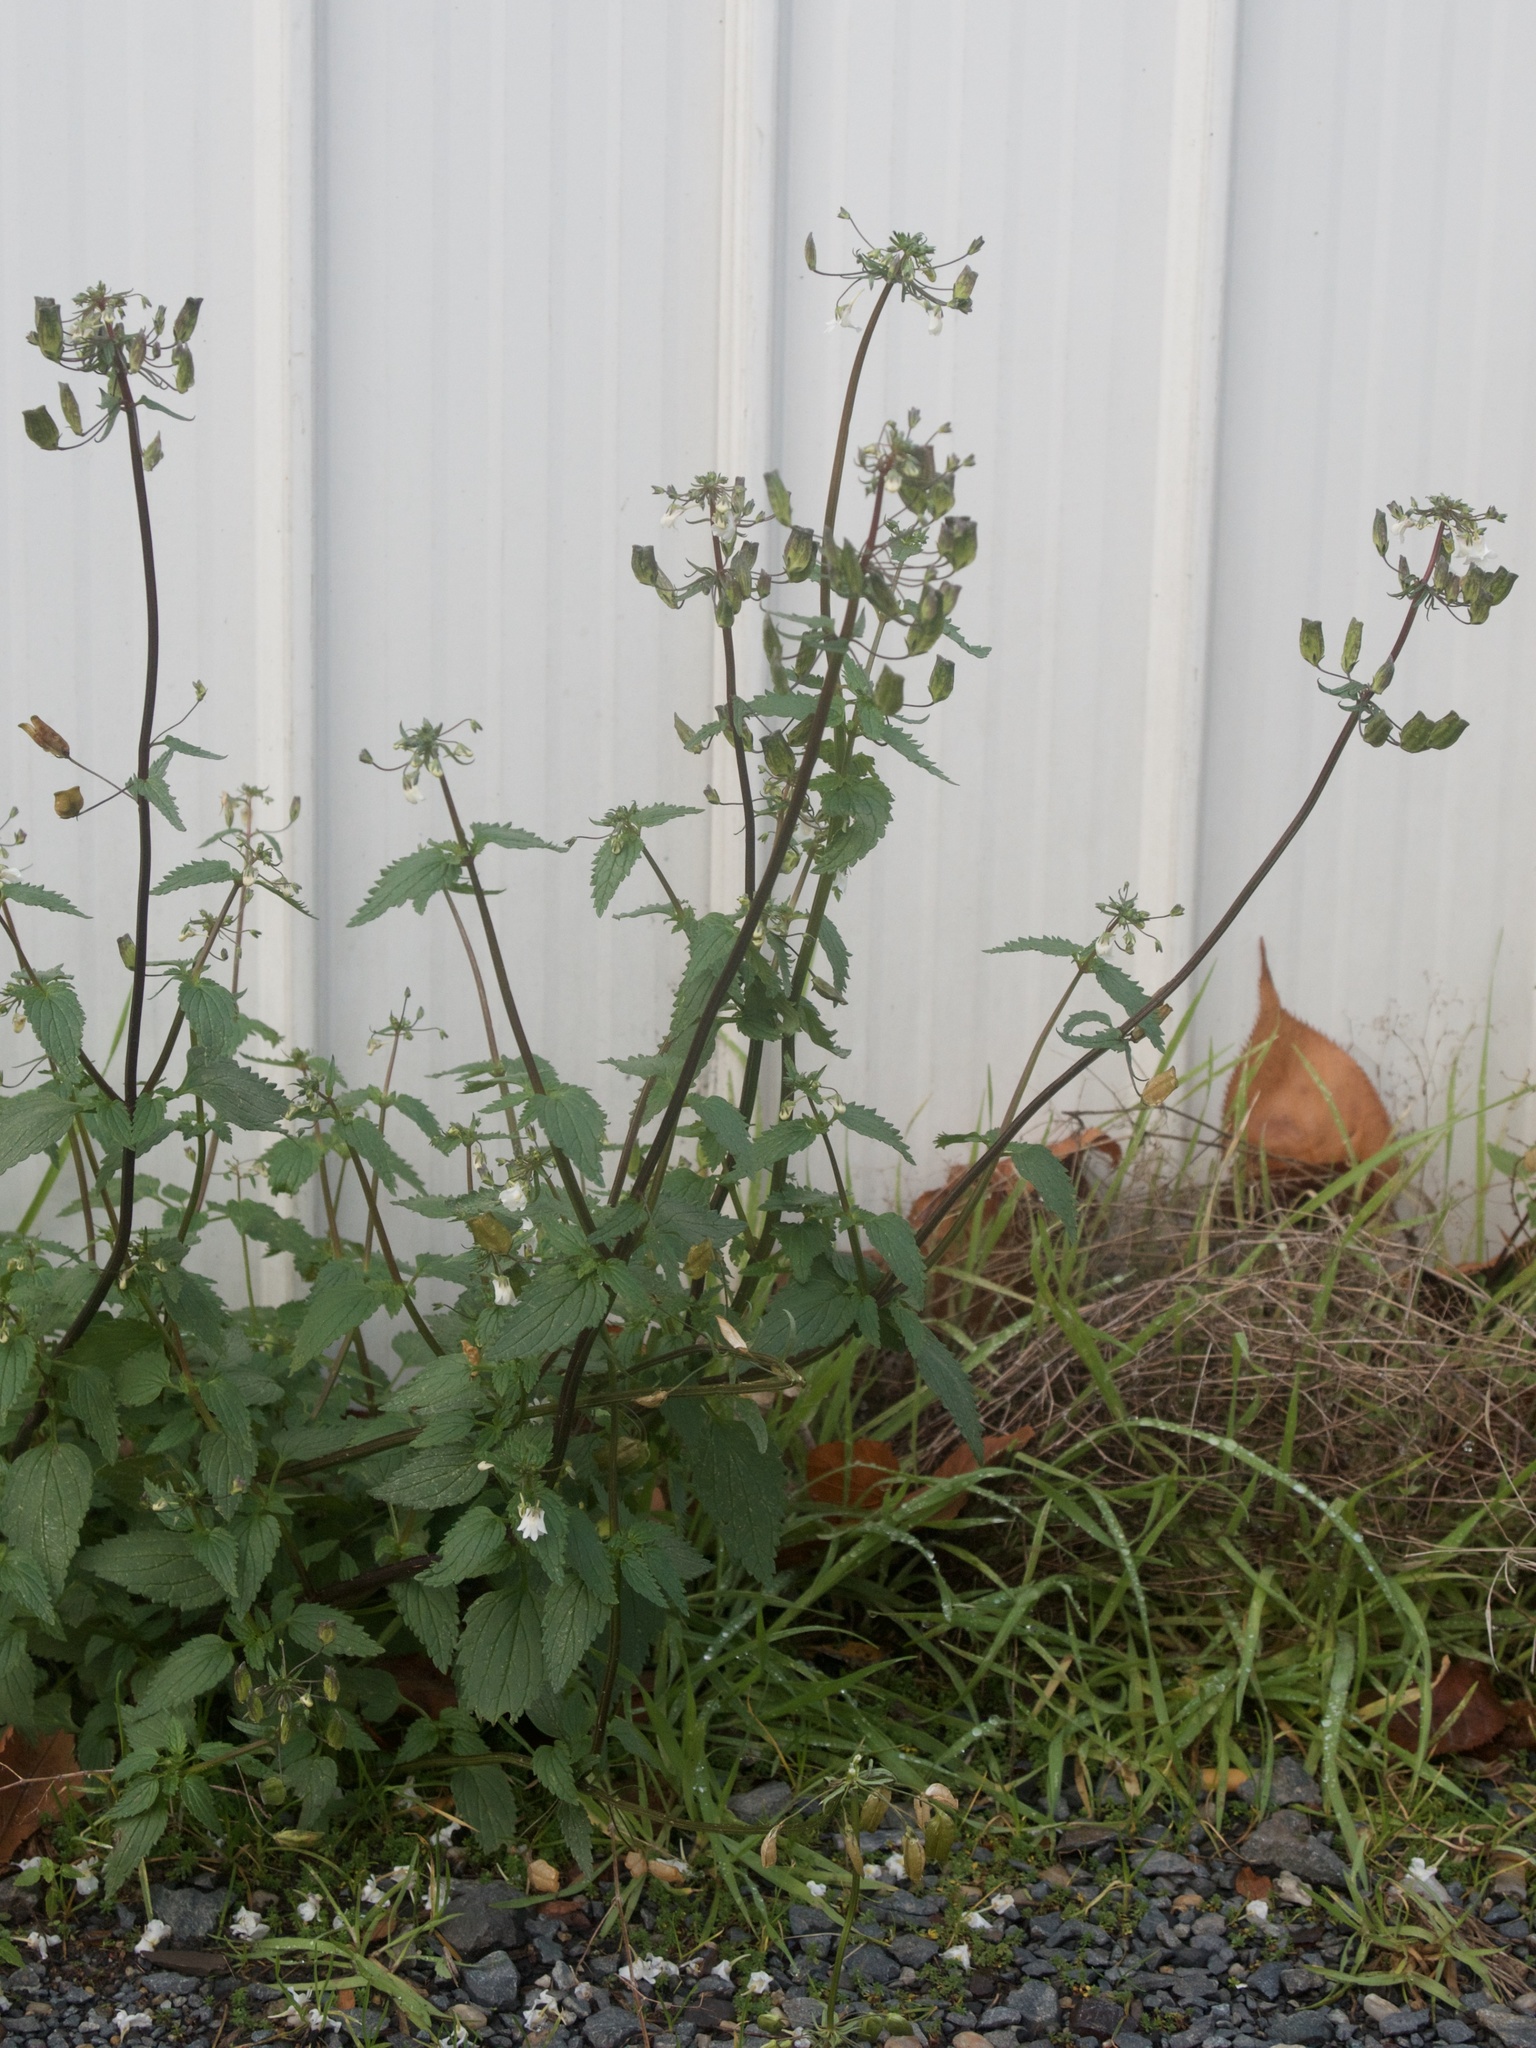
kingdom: Plantae
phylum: Tracheophyta
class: Magnoliopsida
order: Lamiales
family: Scrophulariaceae
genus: Nemesia
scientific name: Nemesia floribunda
